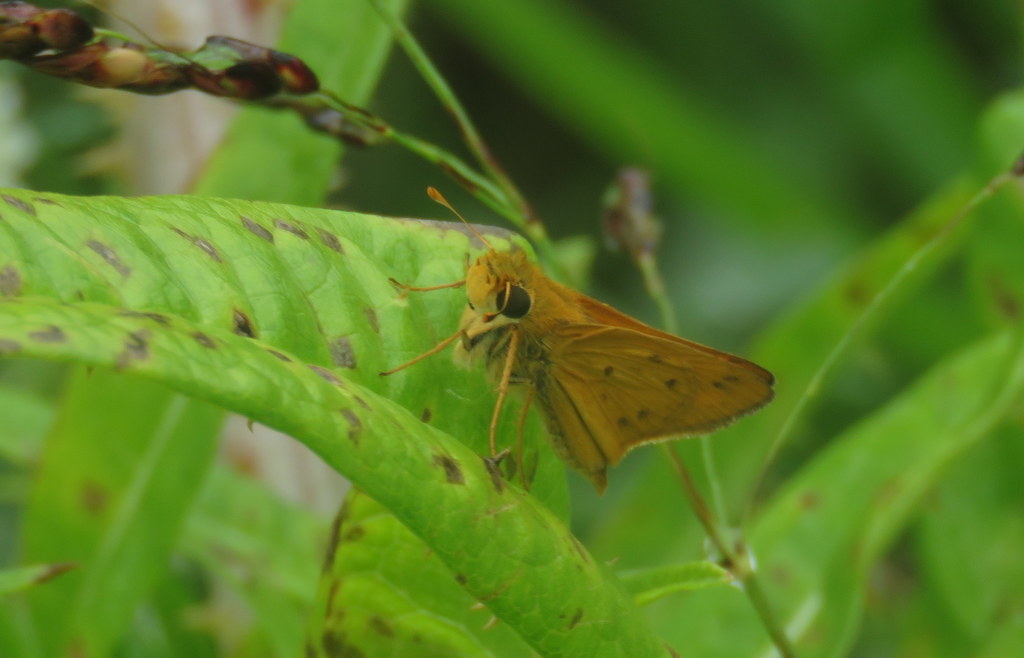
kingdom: Animalia
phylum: Arthropoda
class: Insecta
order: Lepidoptera
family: Hesperiidae
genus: Hylephila
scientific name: Hylephila phyleus
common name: Fiery skipper
